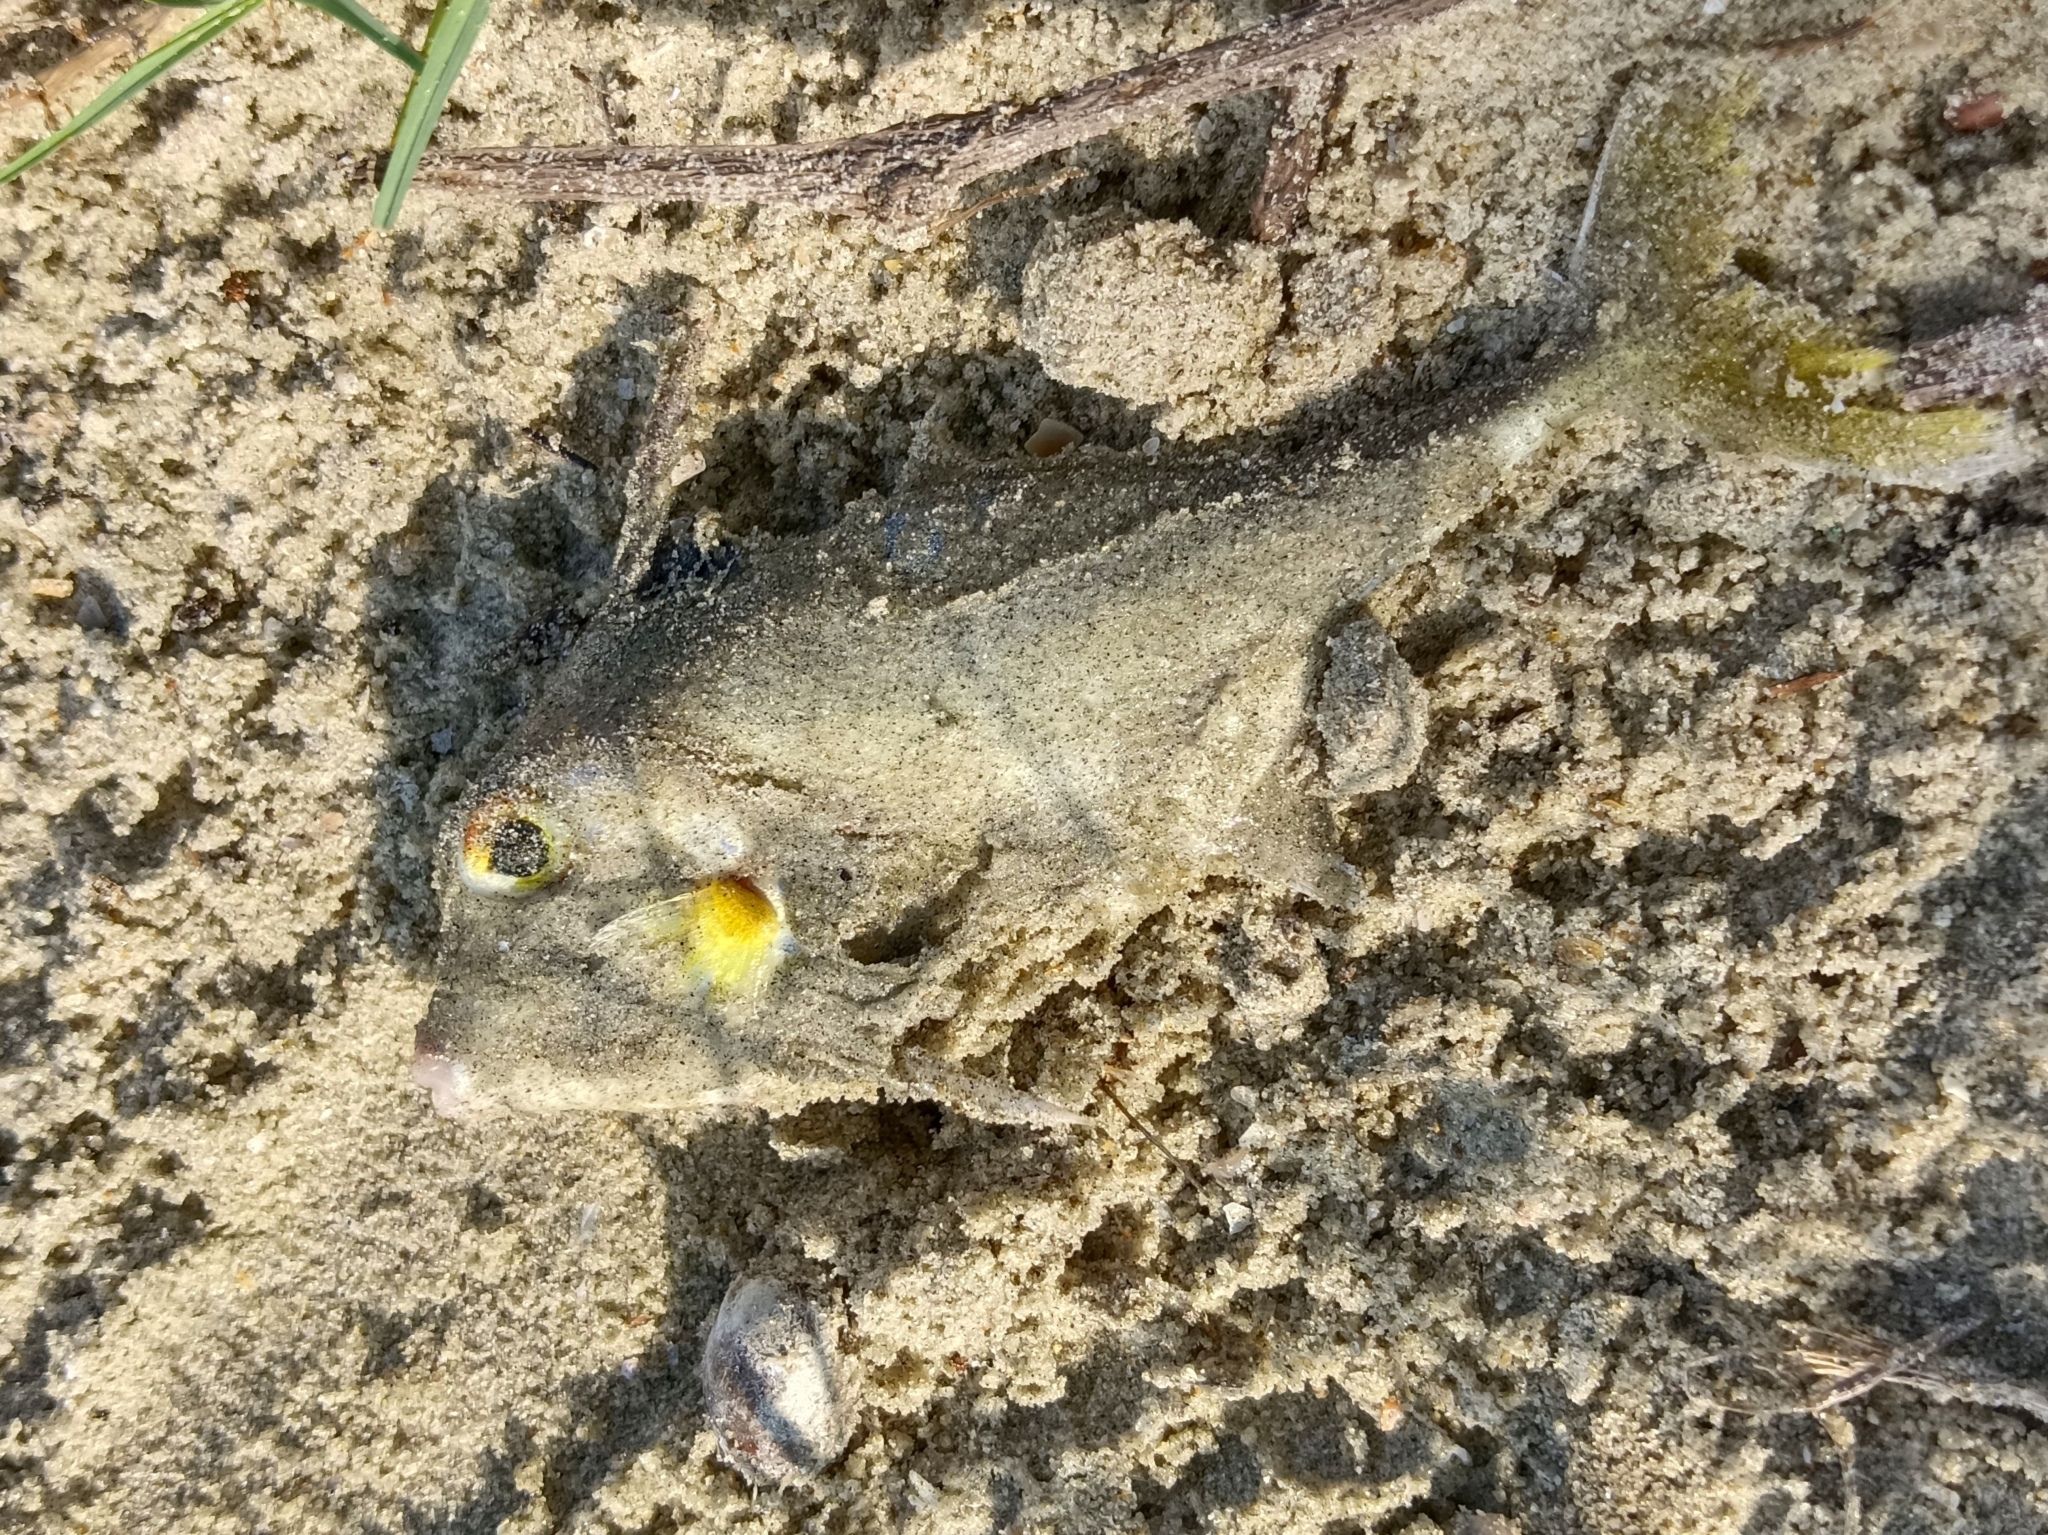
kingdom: Animalia
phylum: Chordata
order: Tetraodontiformes
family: Triacanthidae
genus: Triacanthus
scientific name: Triacanthus biaculeatus
